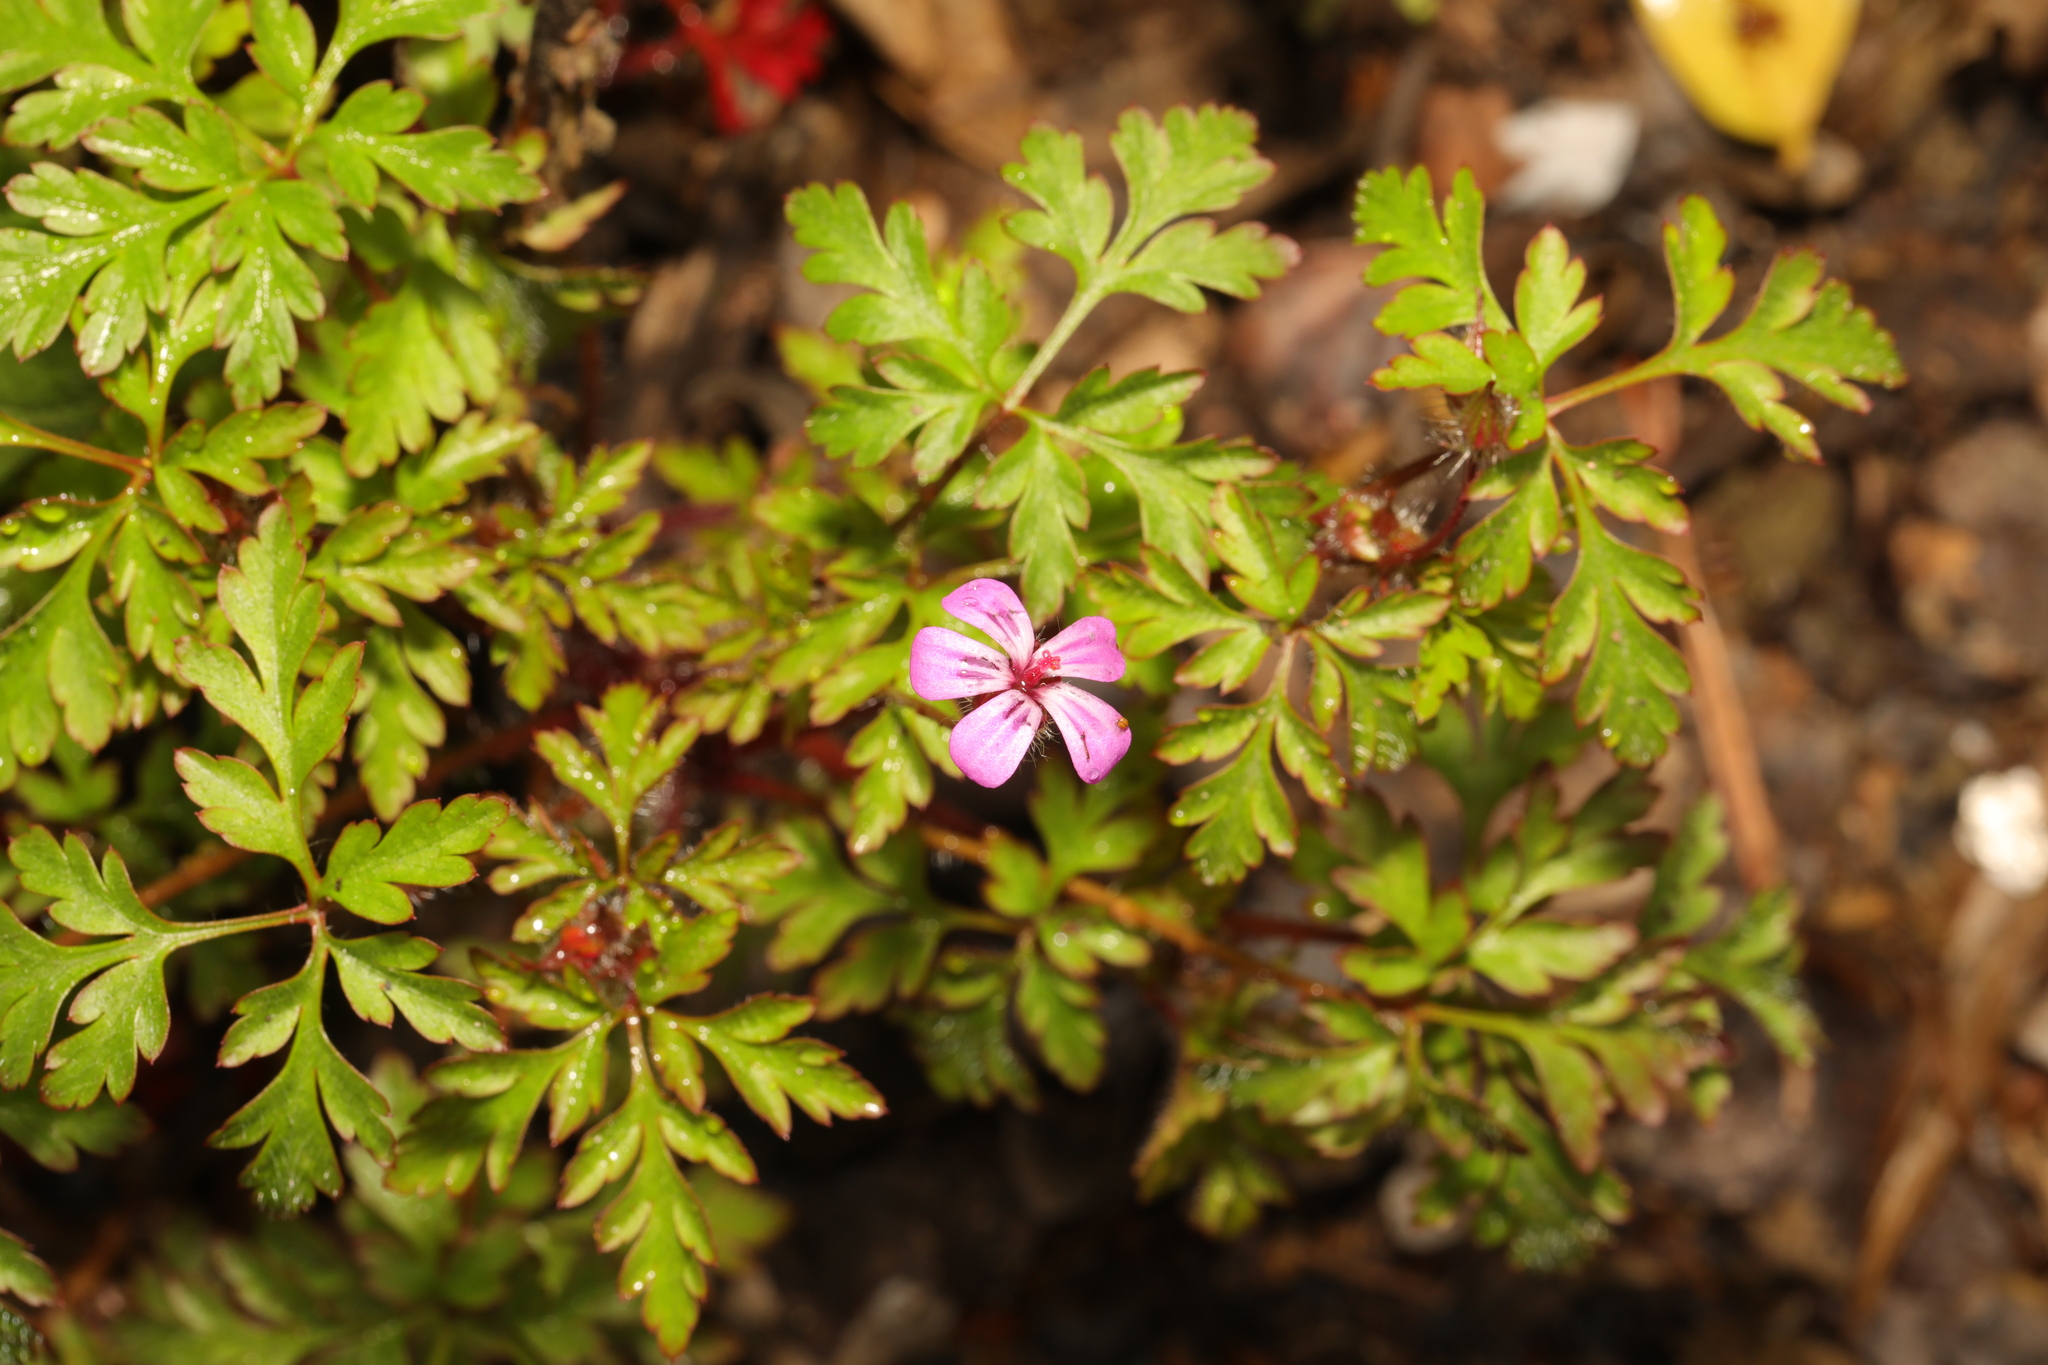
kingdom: Plantae
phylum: Tracheophyta
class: Magnoliopsida
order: Geraniales
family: Geraniaceae
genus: Geranium
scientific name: Geranium robertianum
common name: Herb-robert
